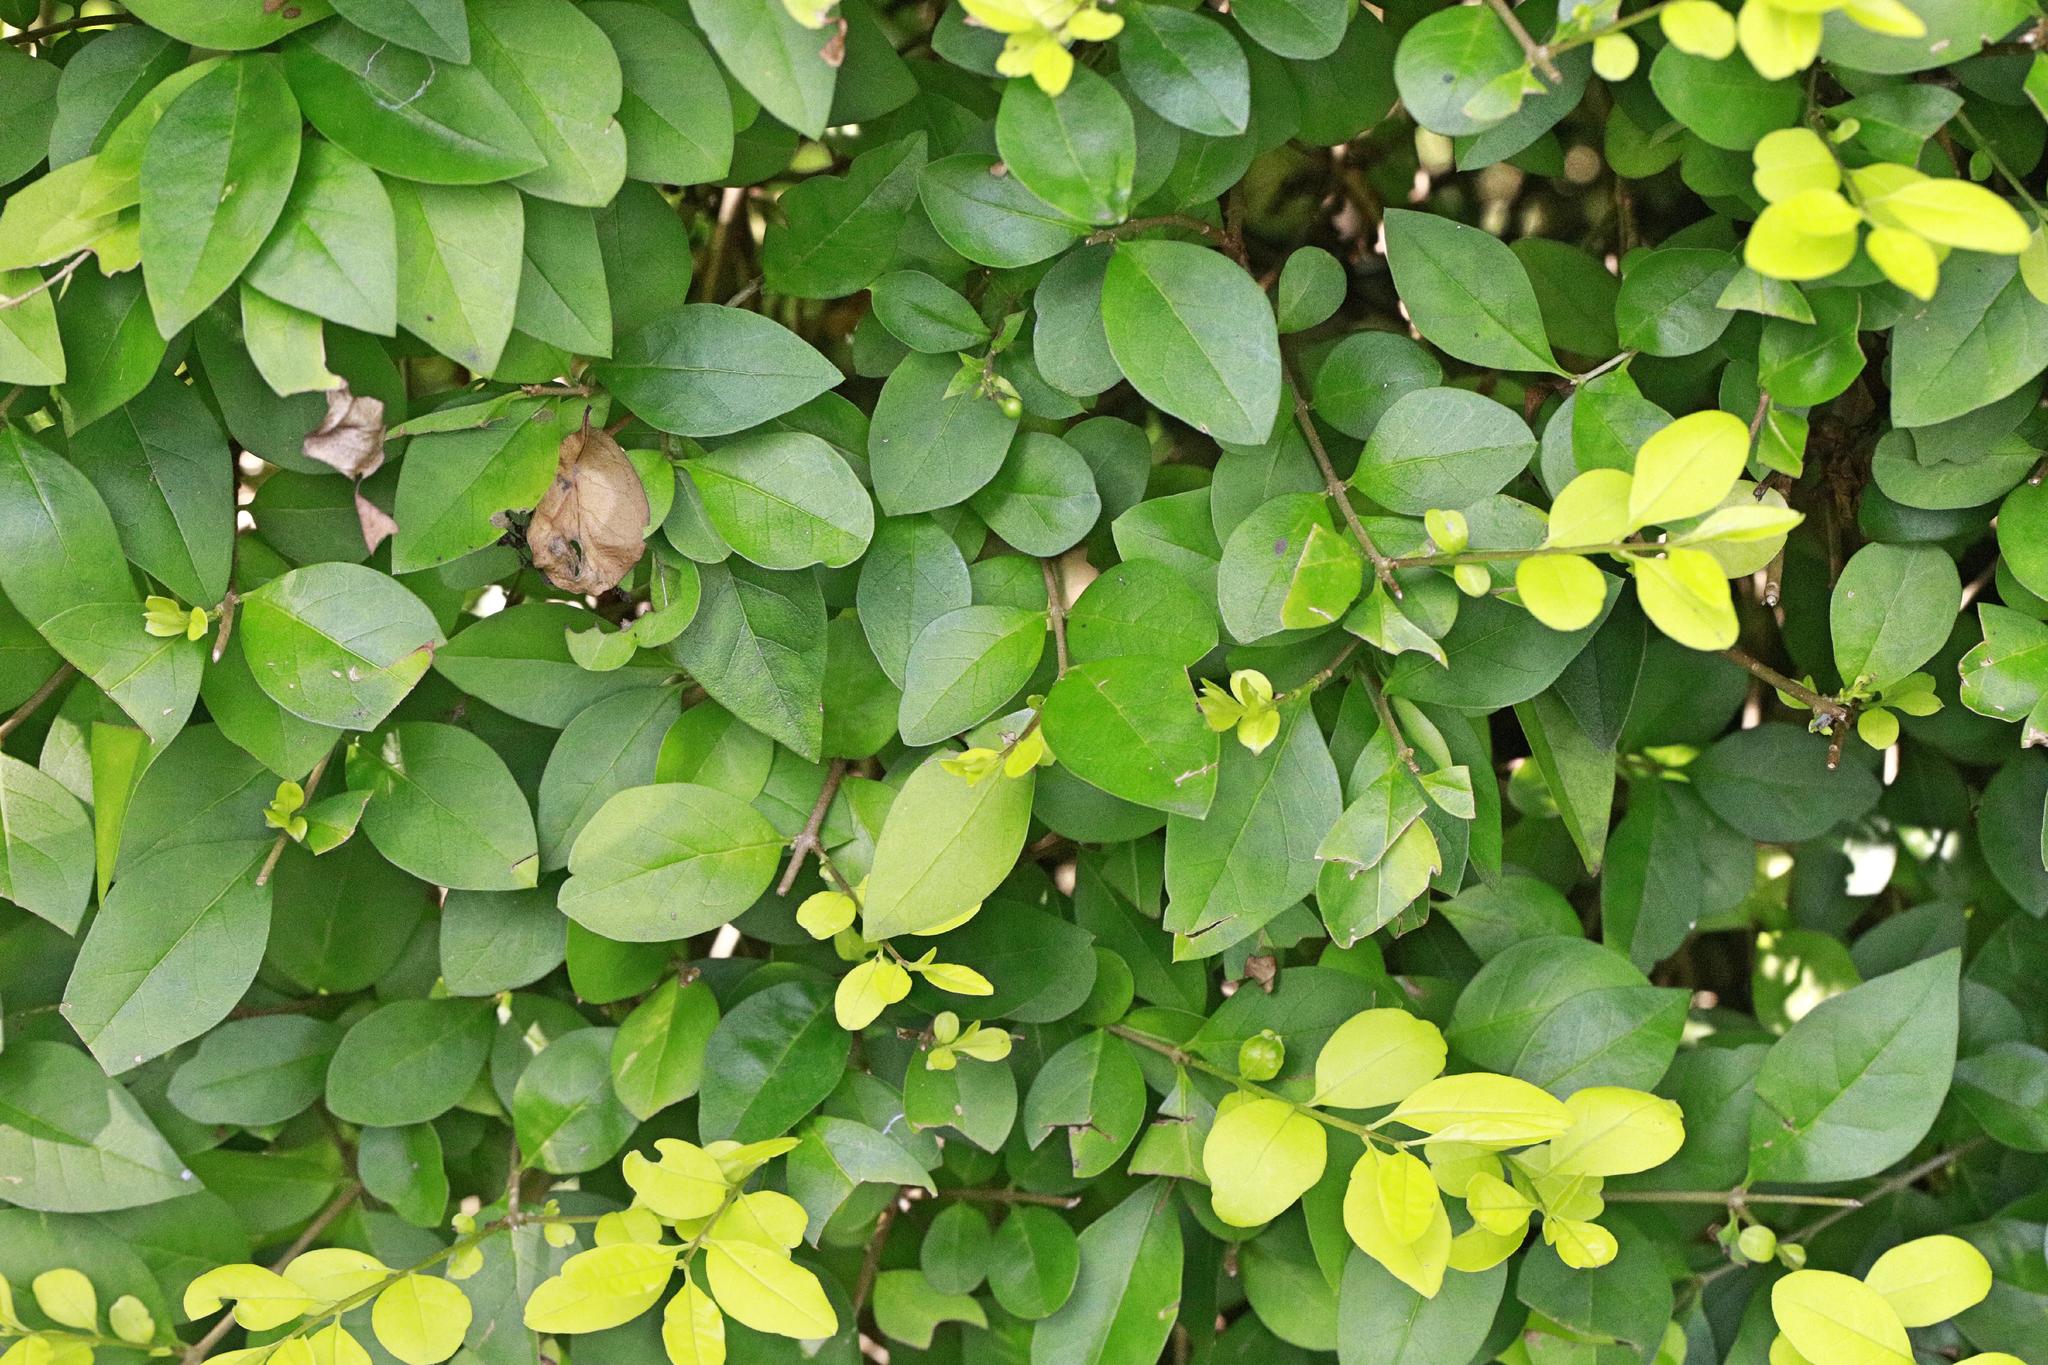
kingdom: Plantae
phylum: Tracheophyta
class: Magnoliopsida
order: Lamiales
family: Oleaceae
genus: Ligustrum
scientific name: Ligustrum ovalifolium
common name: California privet
